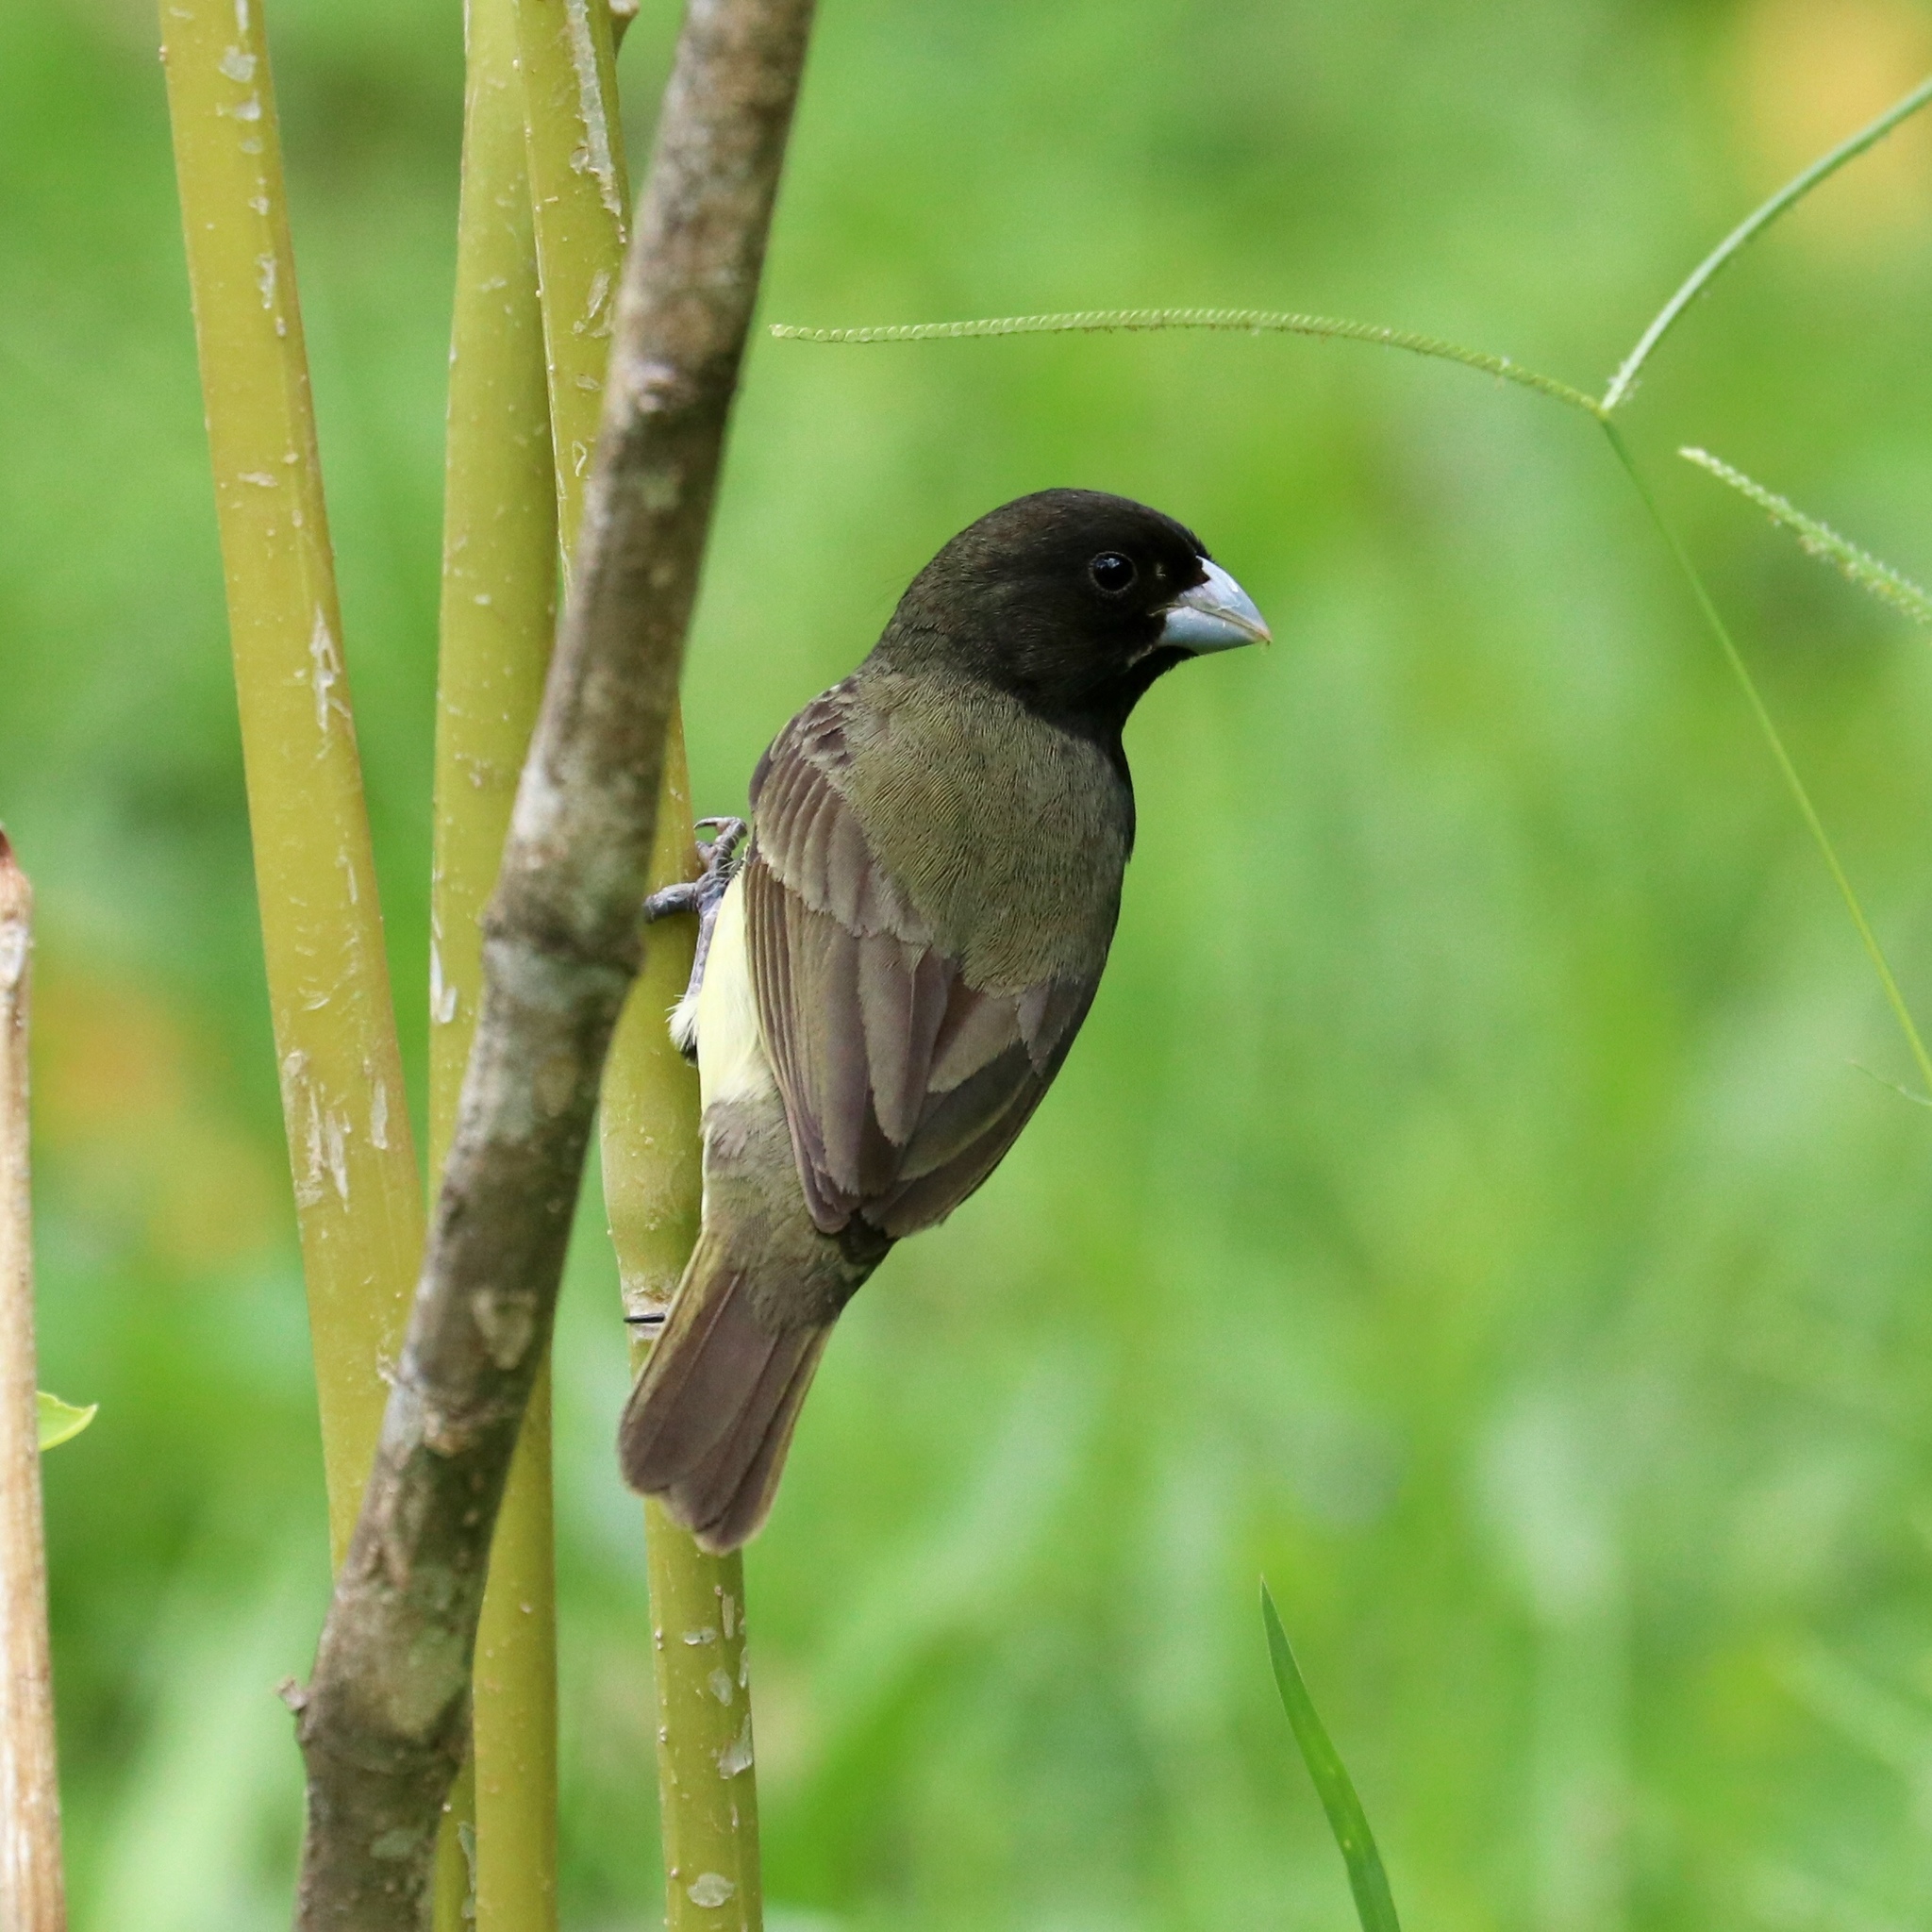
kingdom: Animalia
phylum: Chordata
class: Aves
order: Passeriformes
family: Thraupidae
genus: Sporophila
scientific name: Sporophila nigricollis
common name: Yellow-bellied seedeater
